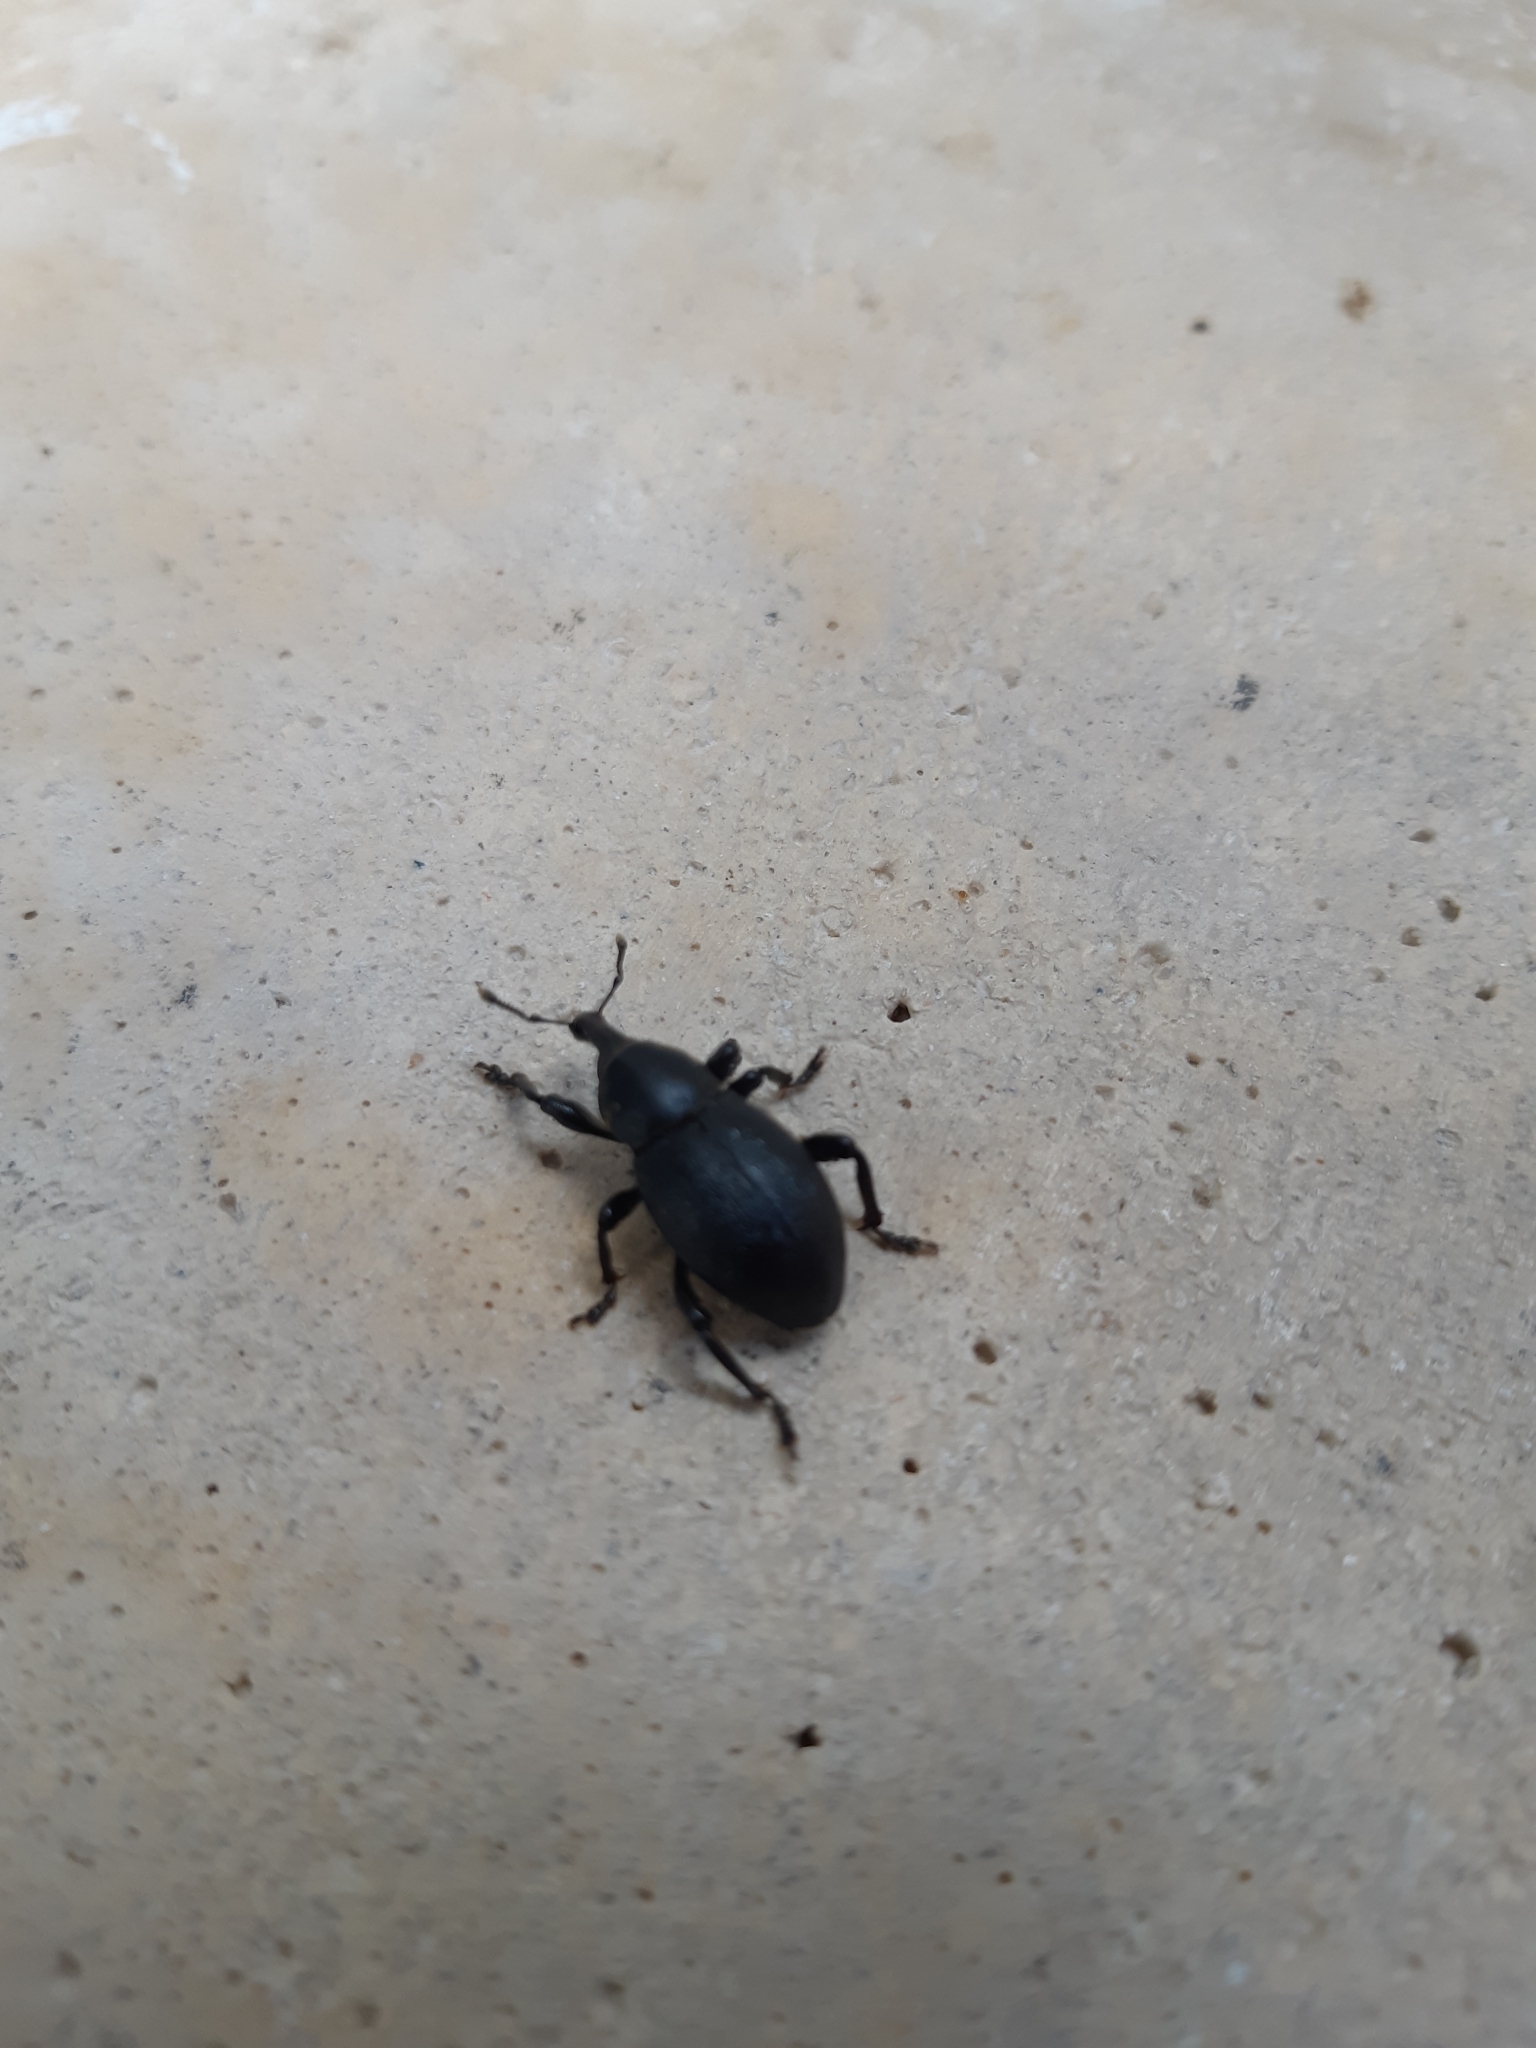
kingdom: Animalia
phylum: Arthropoda
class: Insecta
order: Coleoptera
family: Curculionidae
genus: Liparus
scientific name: Liparus coronatus
